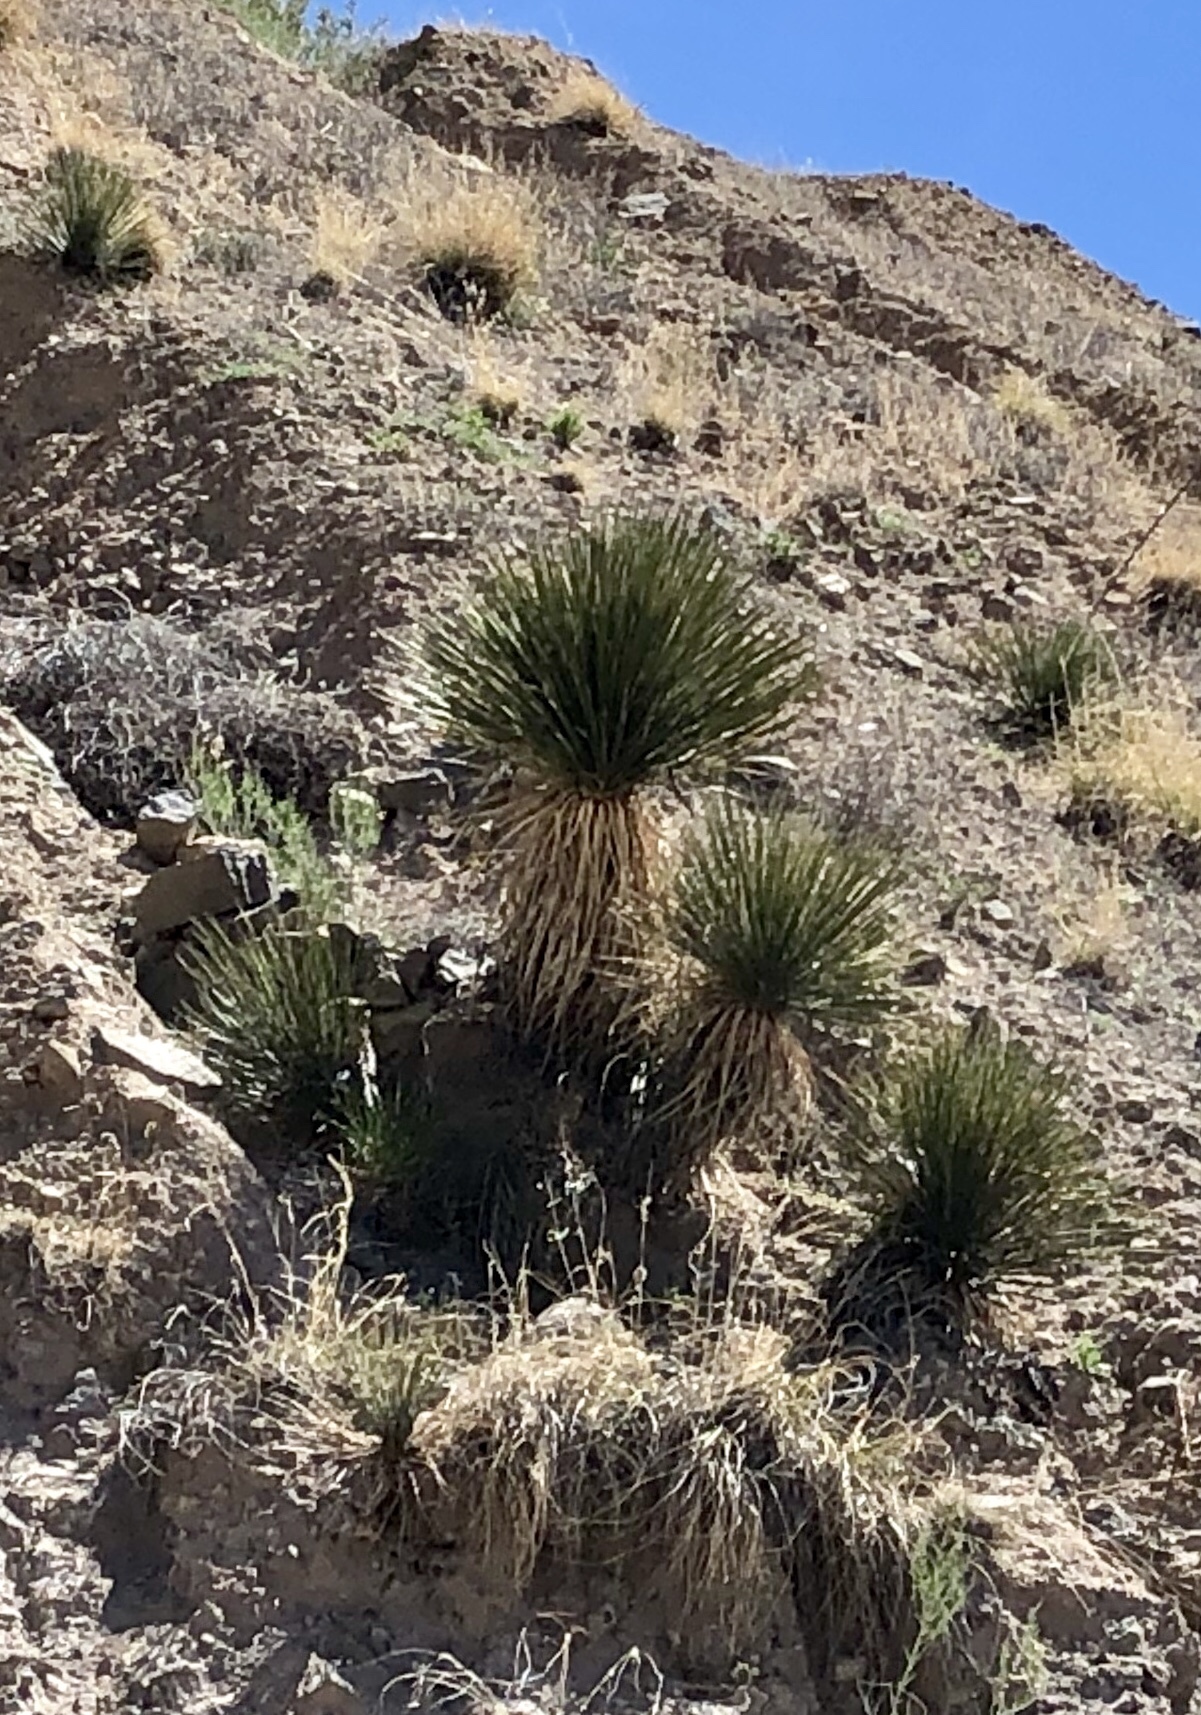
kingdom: Plantae
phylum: Tracheophyta
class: Liliopsida
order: Asparagales
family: Asparagaceae
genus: Yucca
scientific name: Yucca elata
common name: Palmella
